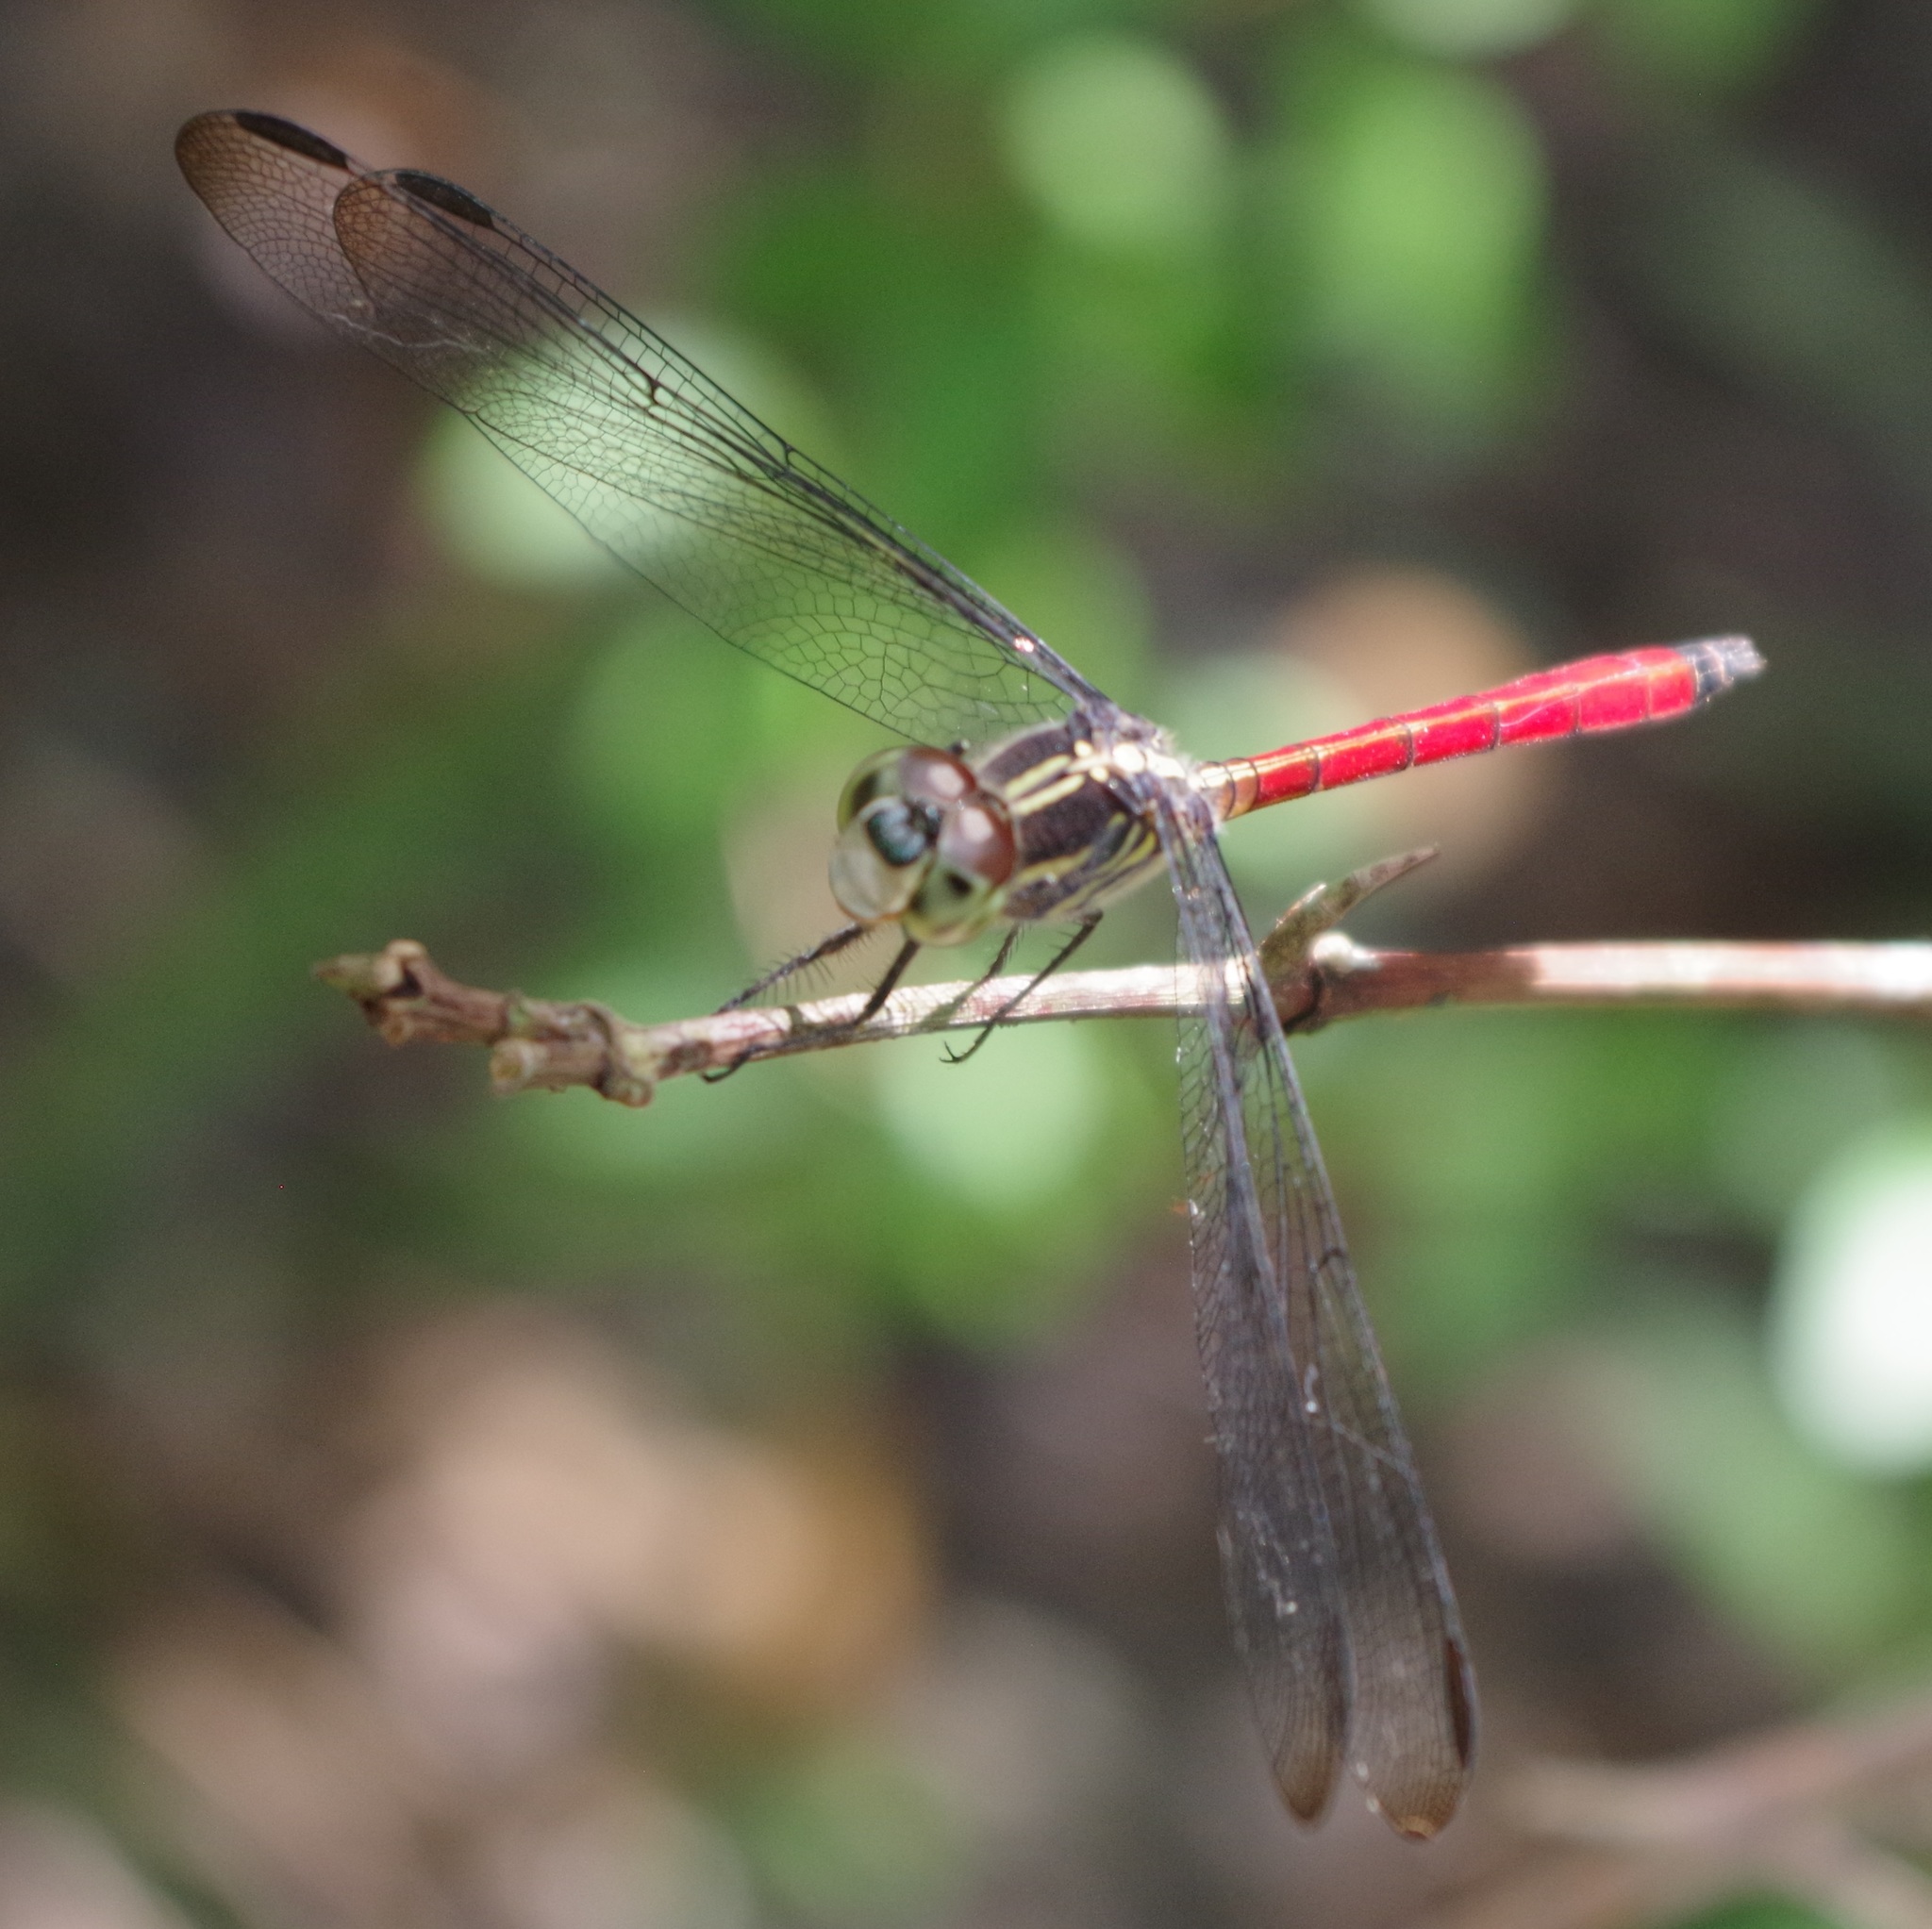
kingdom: Animalia
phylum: Arthropoda
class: Insecta
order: Odonata
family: Libellulidae
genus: Lathrecista
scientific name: Lathrecista asiatica
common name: Scarlet grenadier
